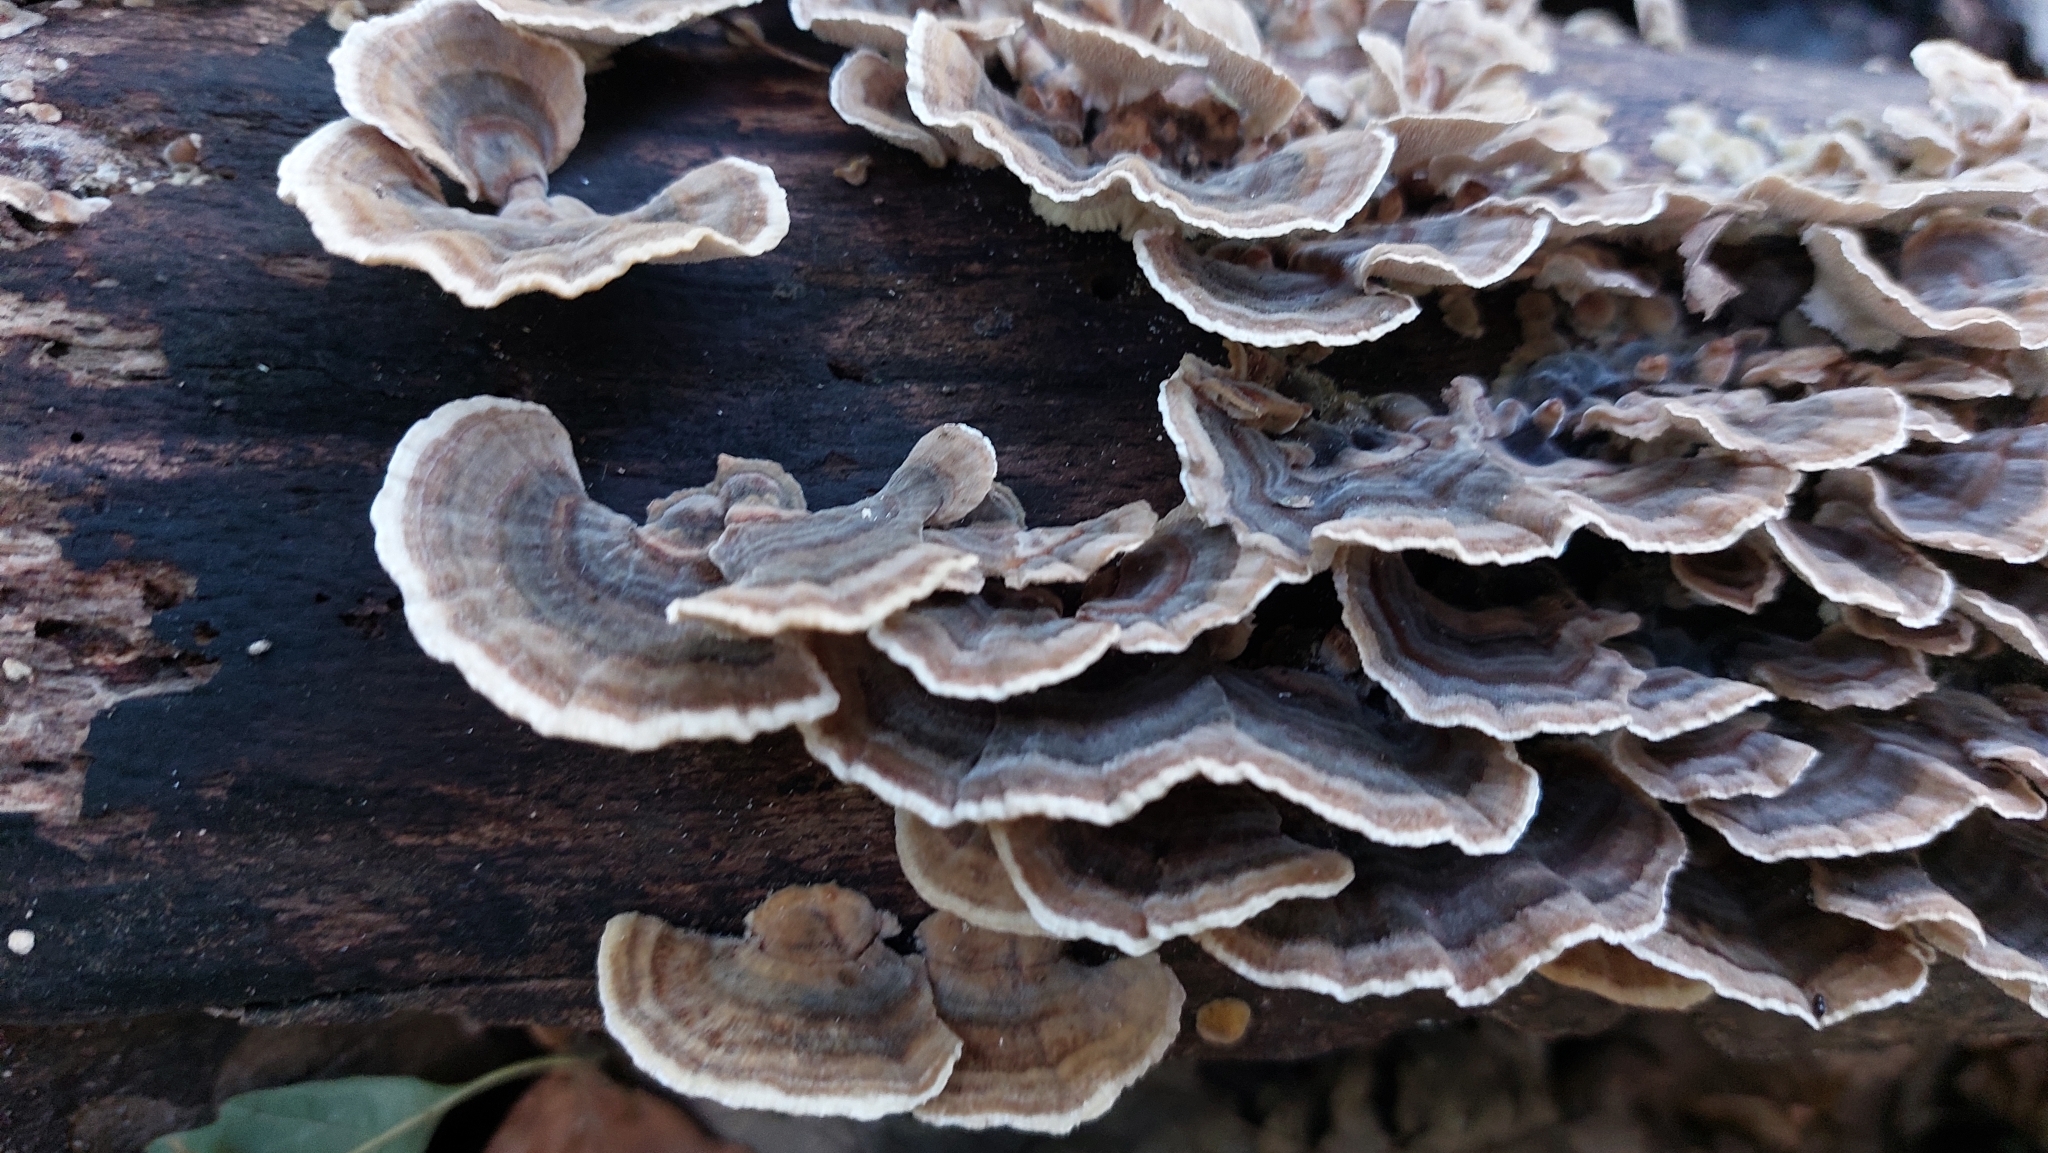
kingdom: Fungi
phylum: Basidiomycota
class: Agaricomycetes
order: Polyporales
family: Polyporaceae
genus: Trametes
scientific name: Trametes versicolor
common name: Turkeytail
